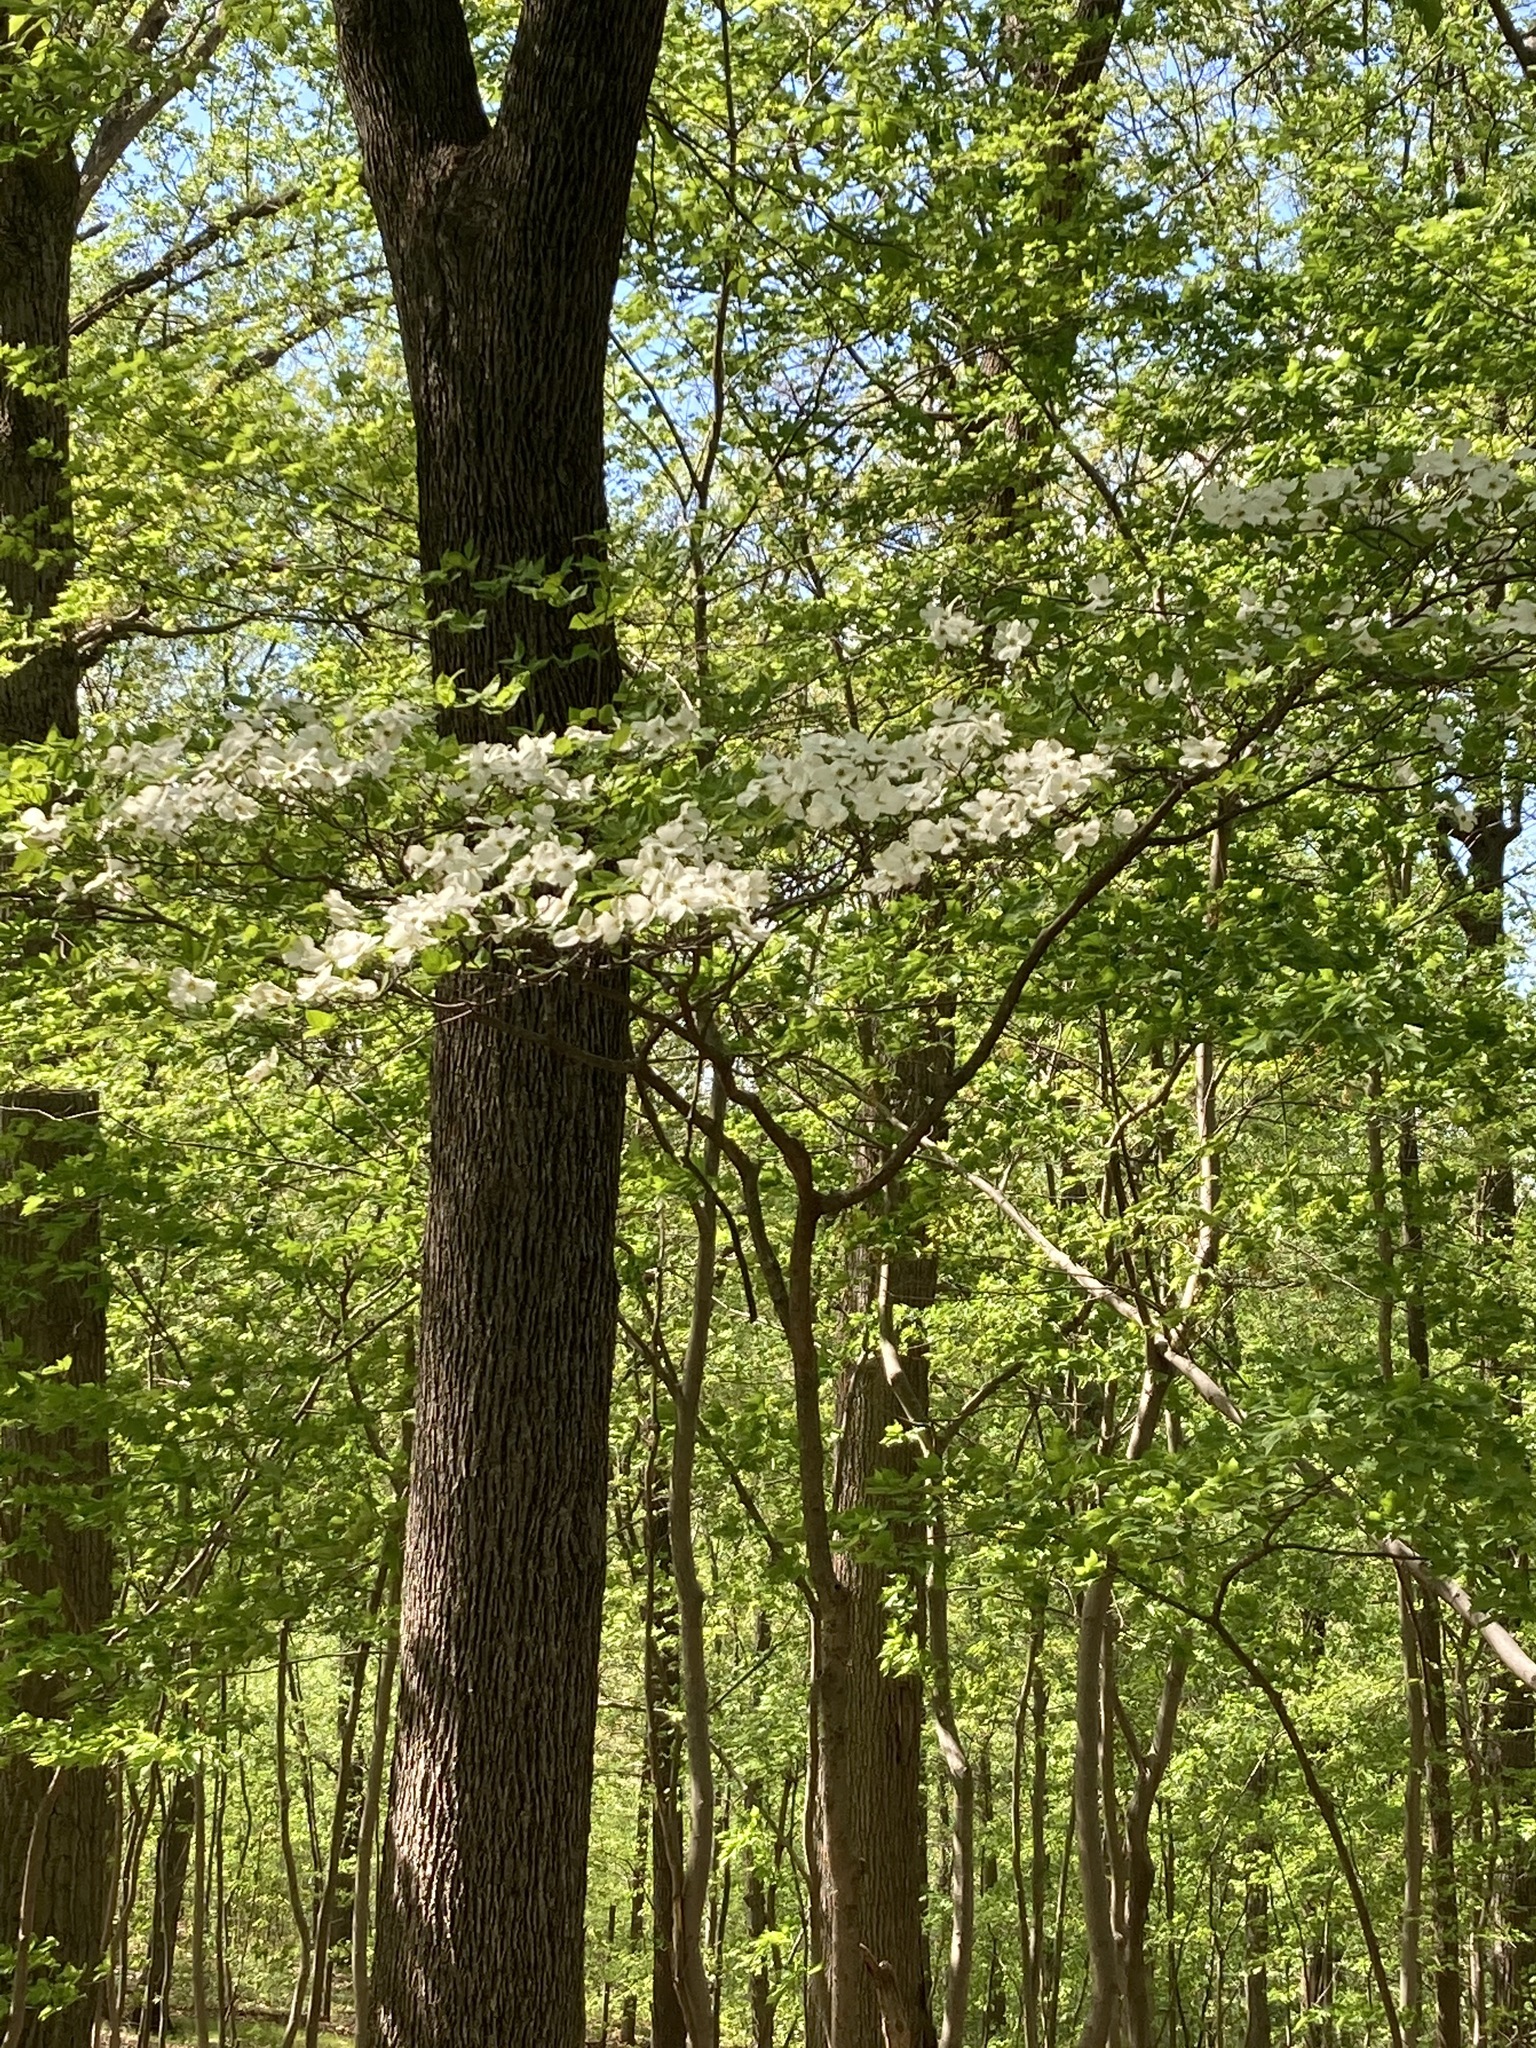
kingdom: Plantae
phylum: Tracheophyta
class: Magnoliopsida
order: Cornales
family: Cornaceae
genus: Cornus
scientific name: Cornus florida
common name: Flowering dogwood
